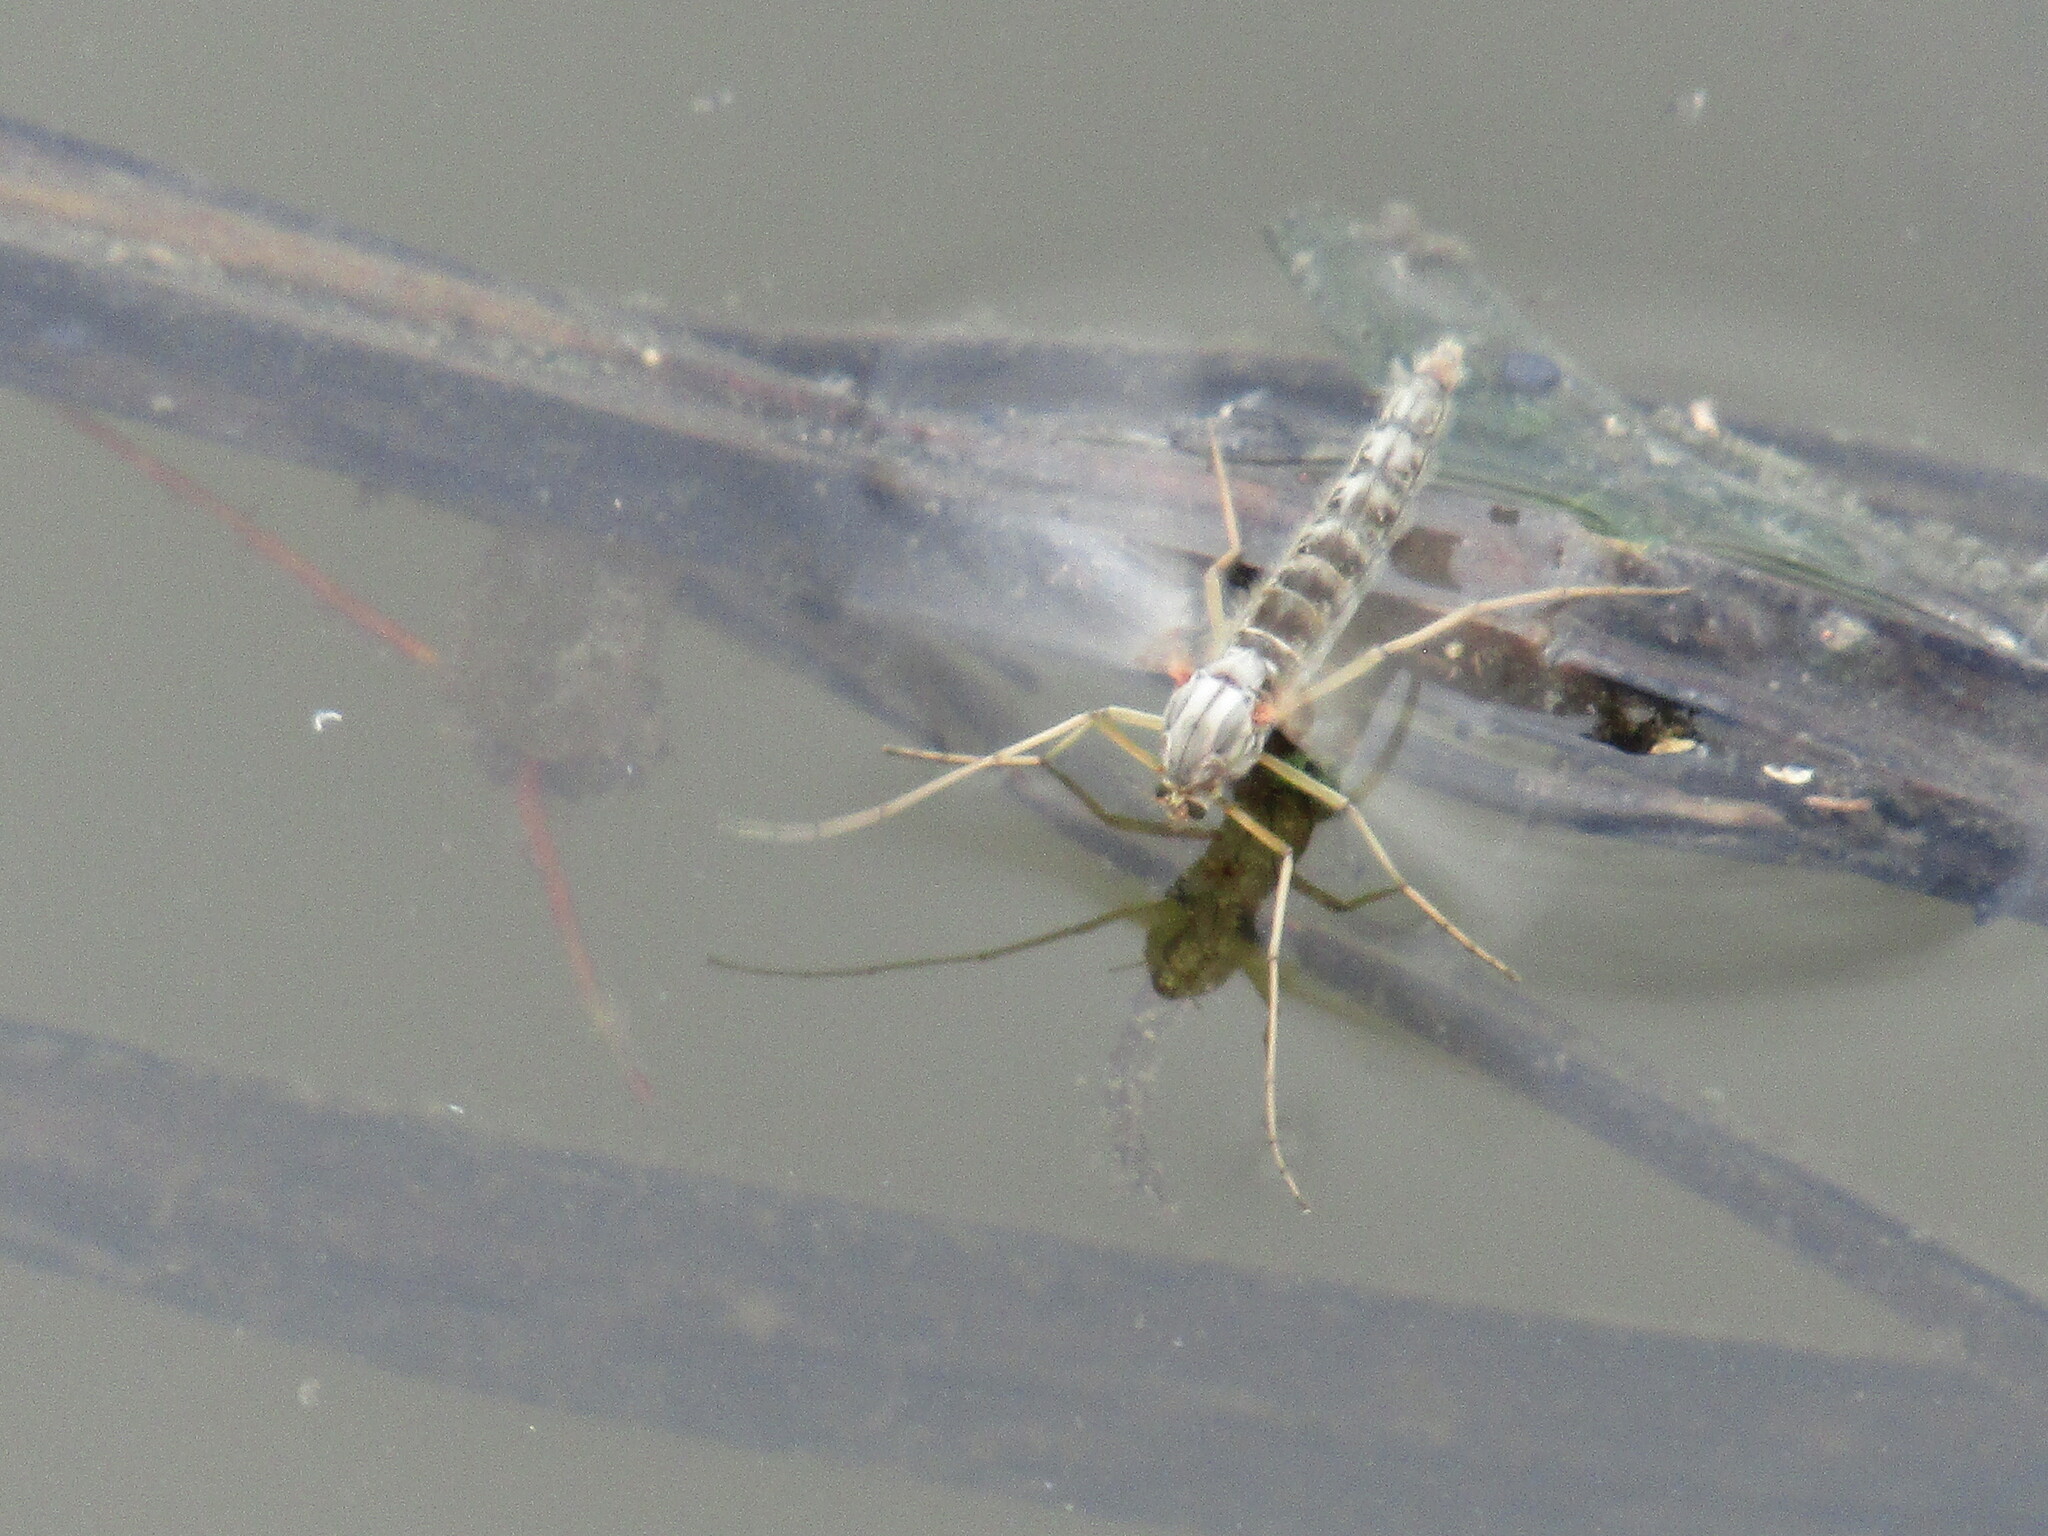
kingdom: Animalia
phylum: Arthropoda
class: Insecta
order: Diptera
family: Chironomidae
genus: Chironomus
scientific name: Chironomus
